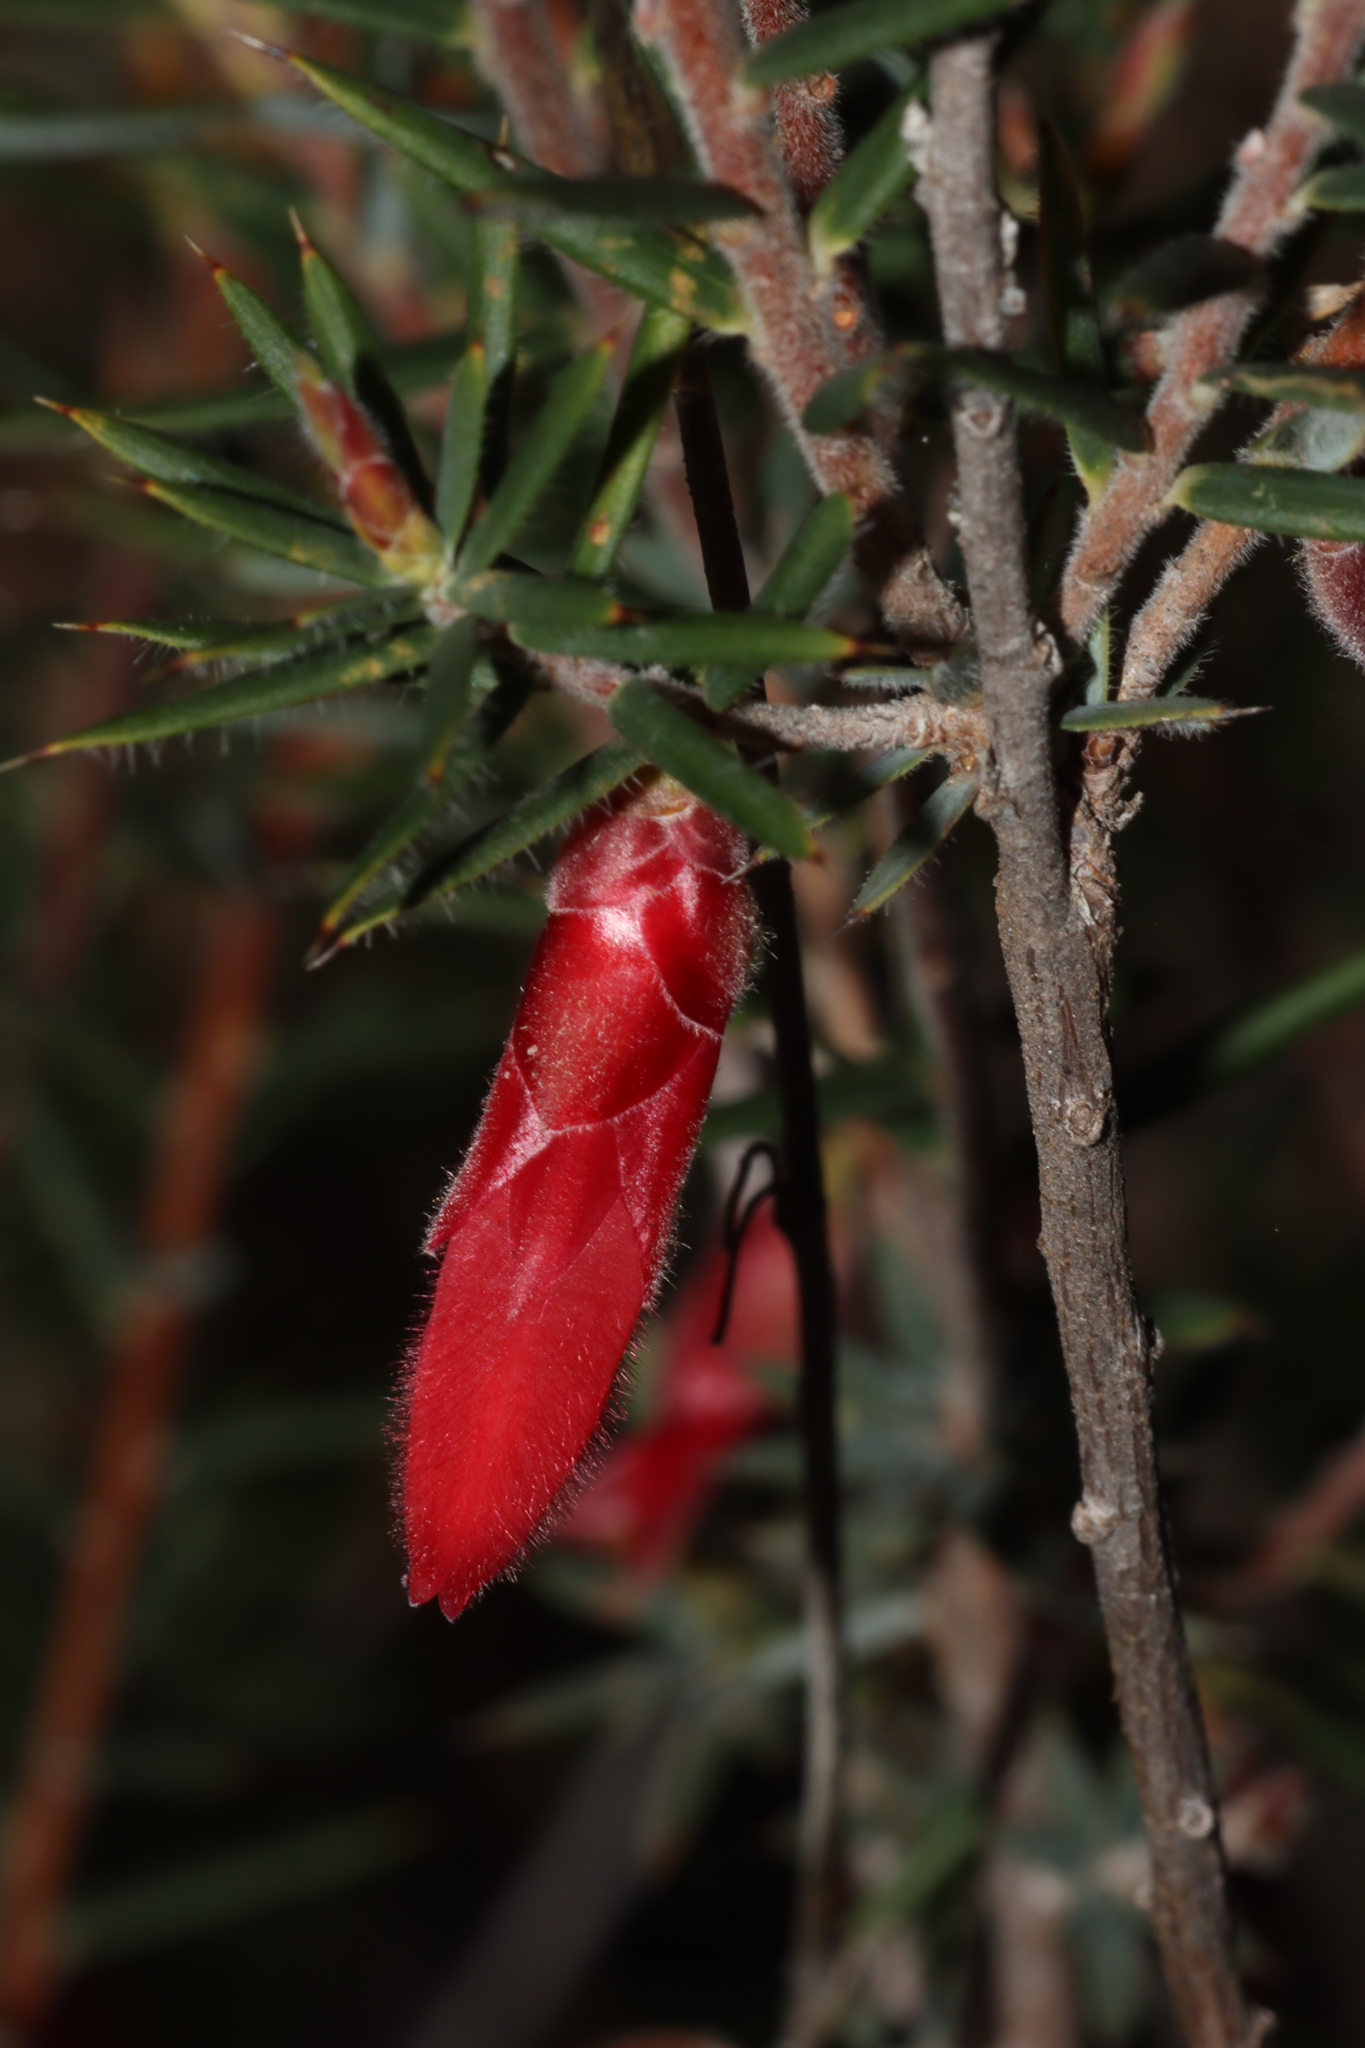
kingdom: Plantae
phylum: Tracheophyta
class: Magnoliopsida
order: Ericales
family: Ericaceae
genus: Stenanthera
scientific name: Stenanthera conostephioides
